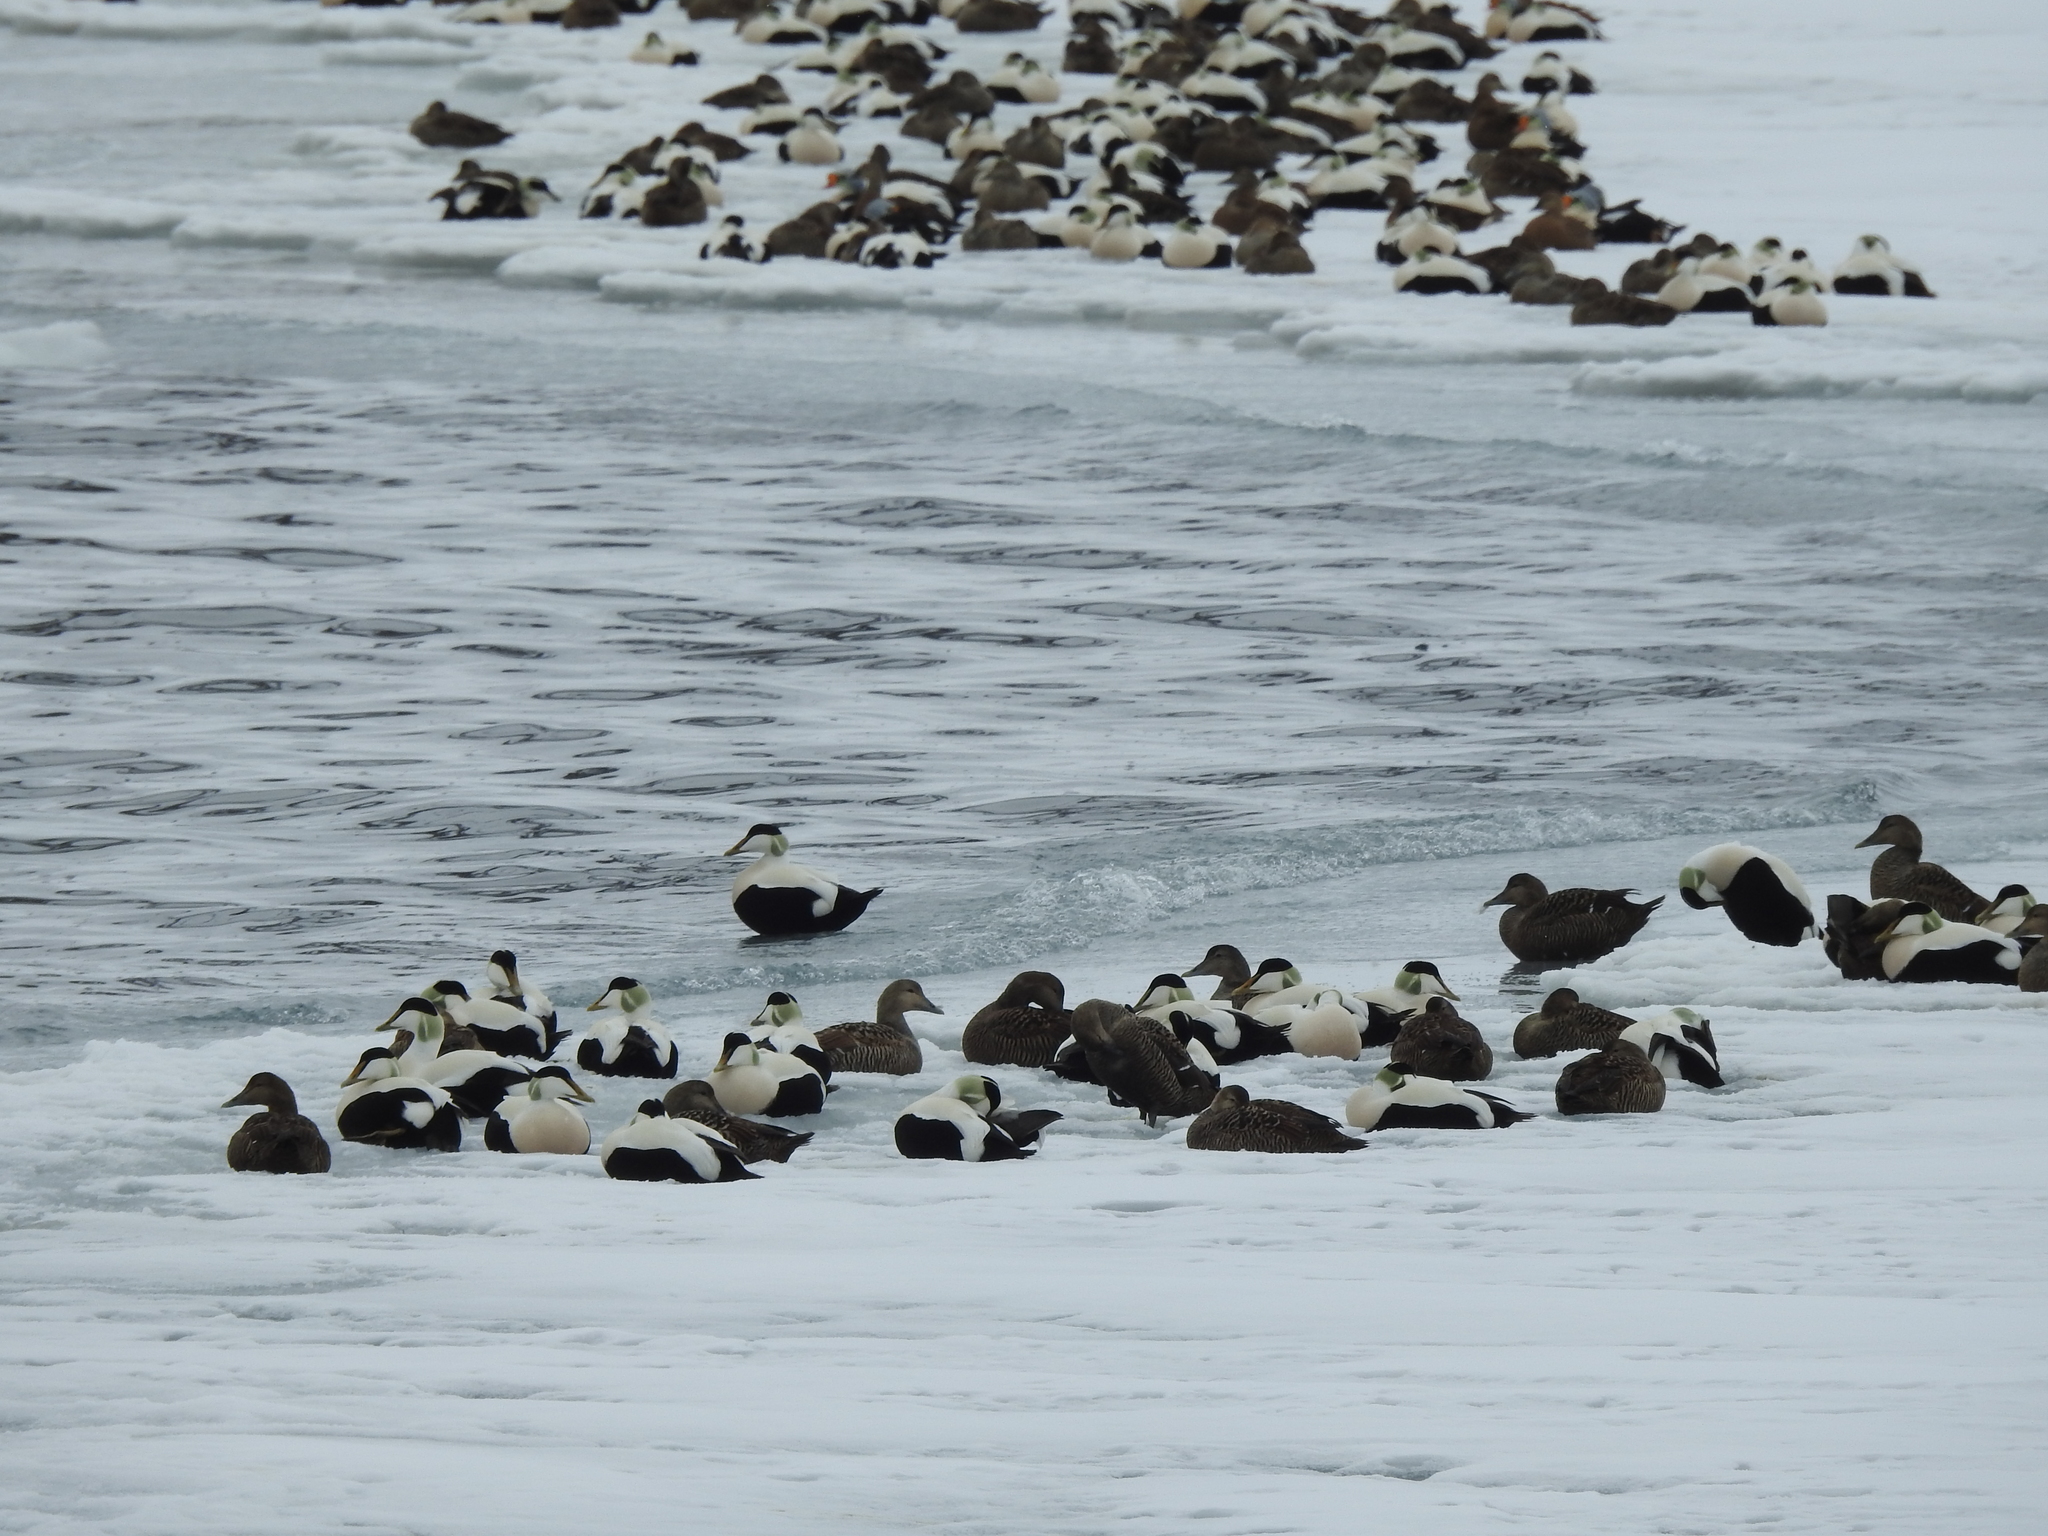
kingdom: Animalia
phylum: Chordata
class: Aves
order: Anseriformes
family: Anatidae
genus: Somateria
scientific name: Somateria mollissima
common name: Common eider
